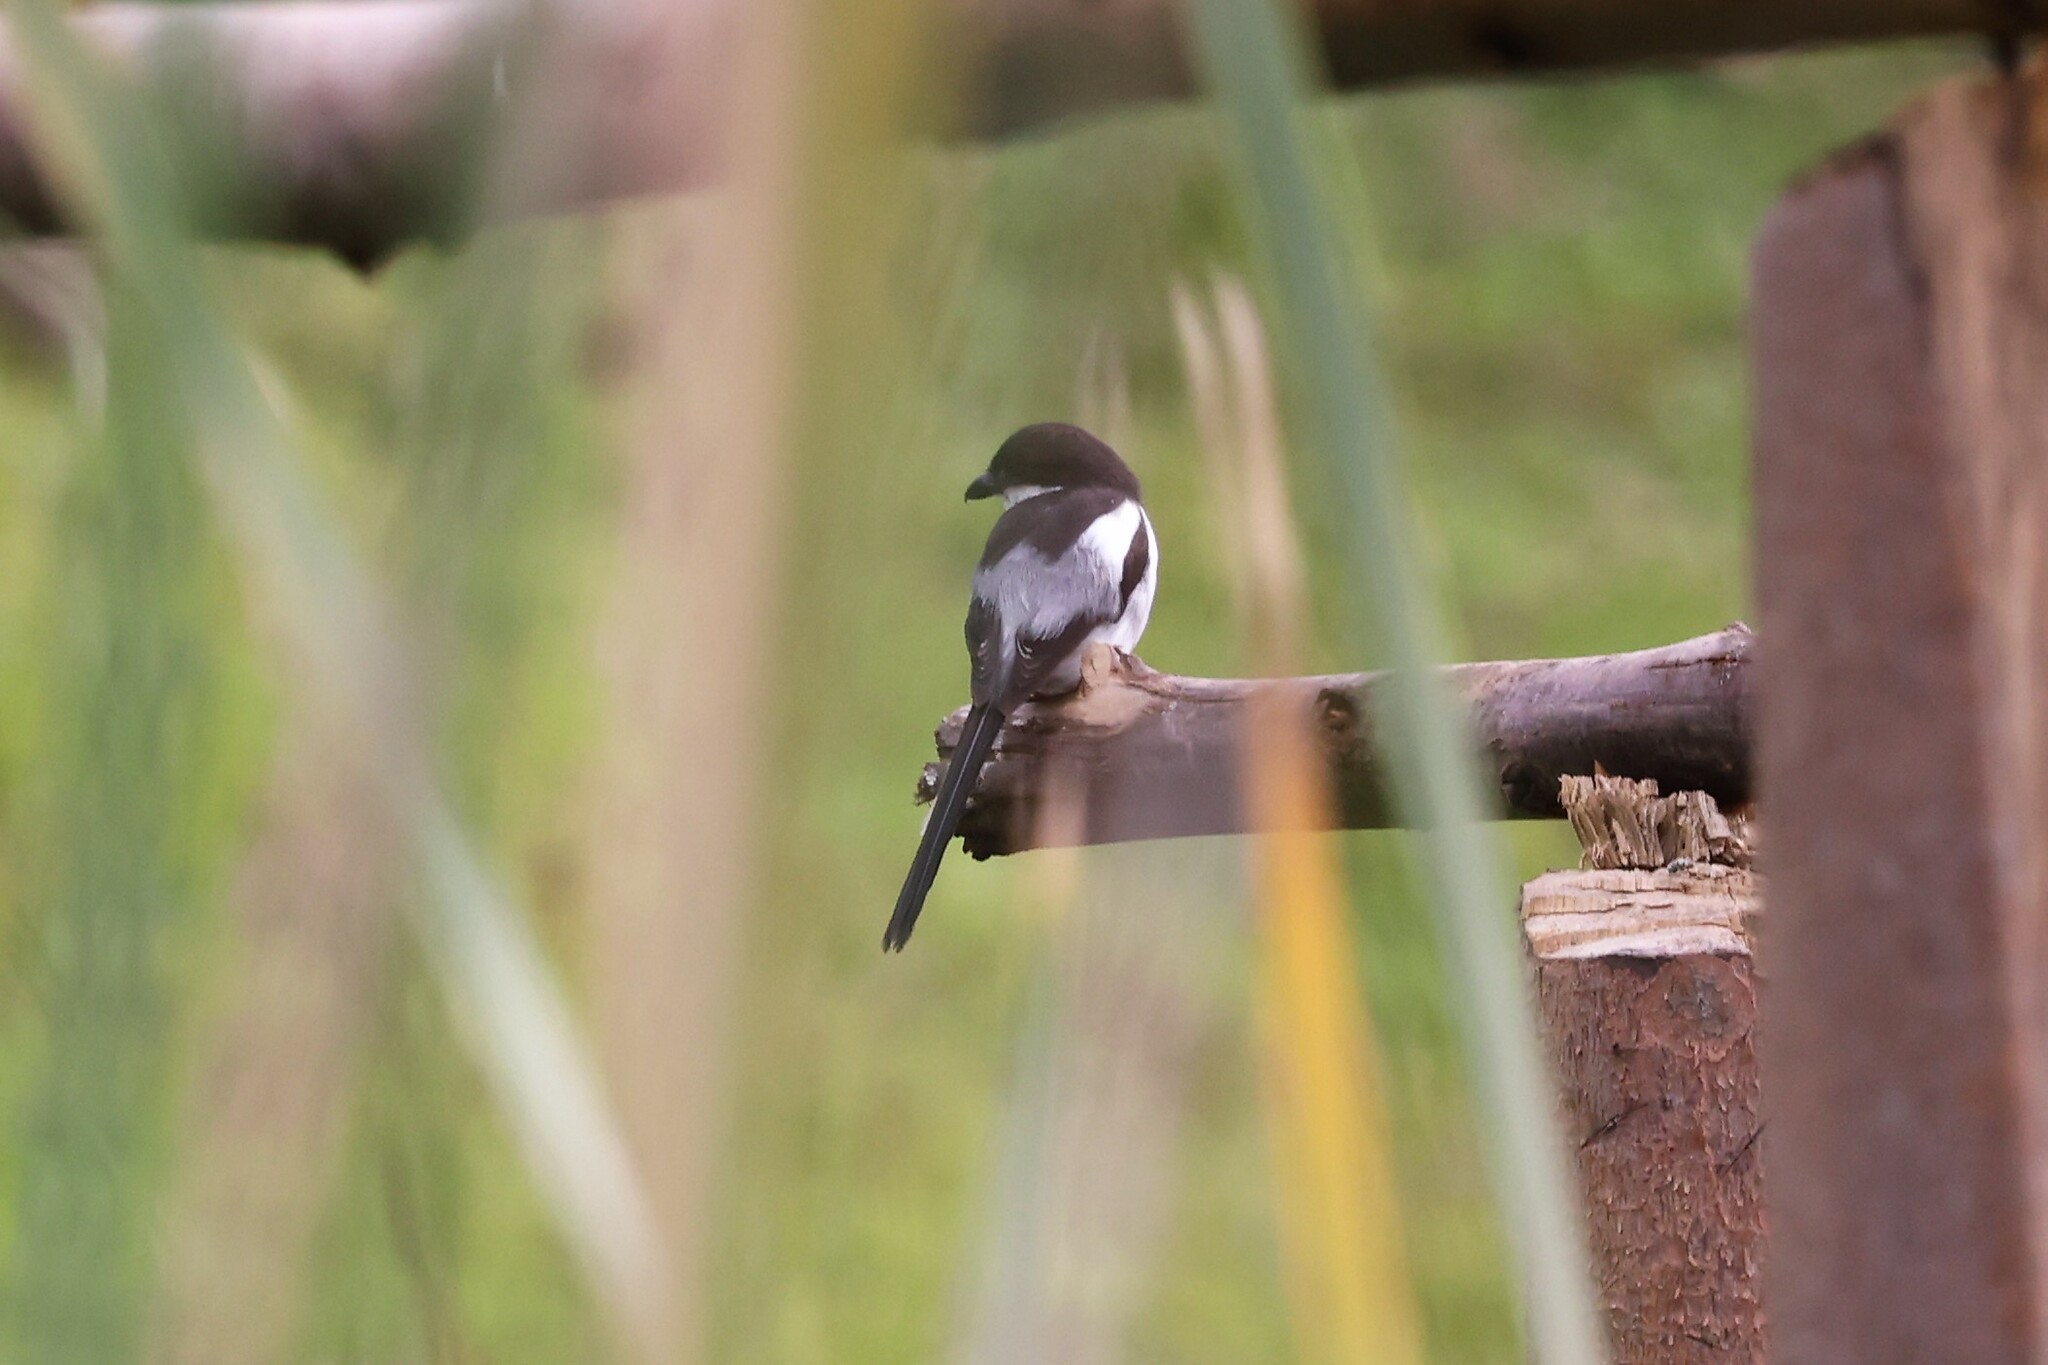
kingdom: Animalia
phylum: Chordata
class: Aves
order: Passeriformes
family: Laniidae
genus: Lanius
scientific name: Lanius humeralis
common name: Northern fiscal
